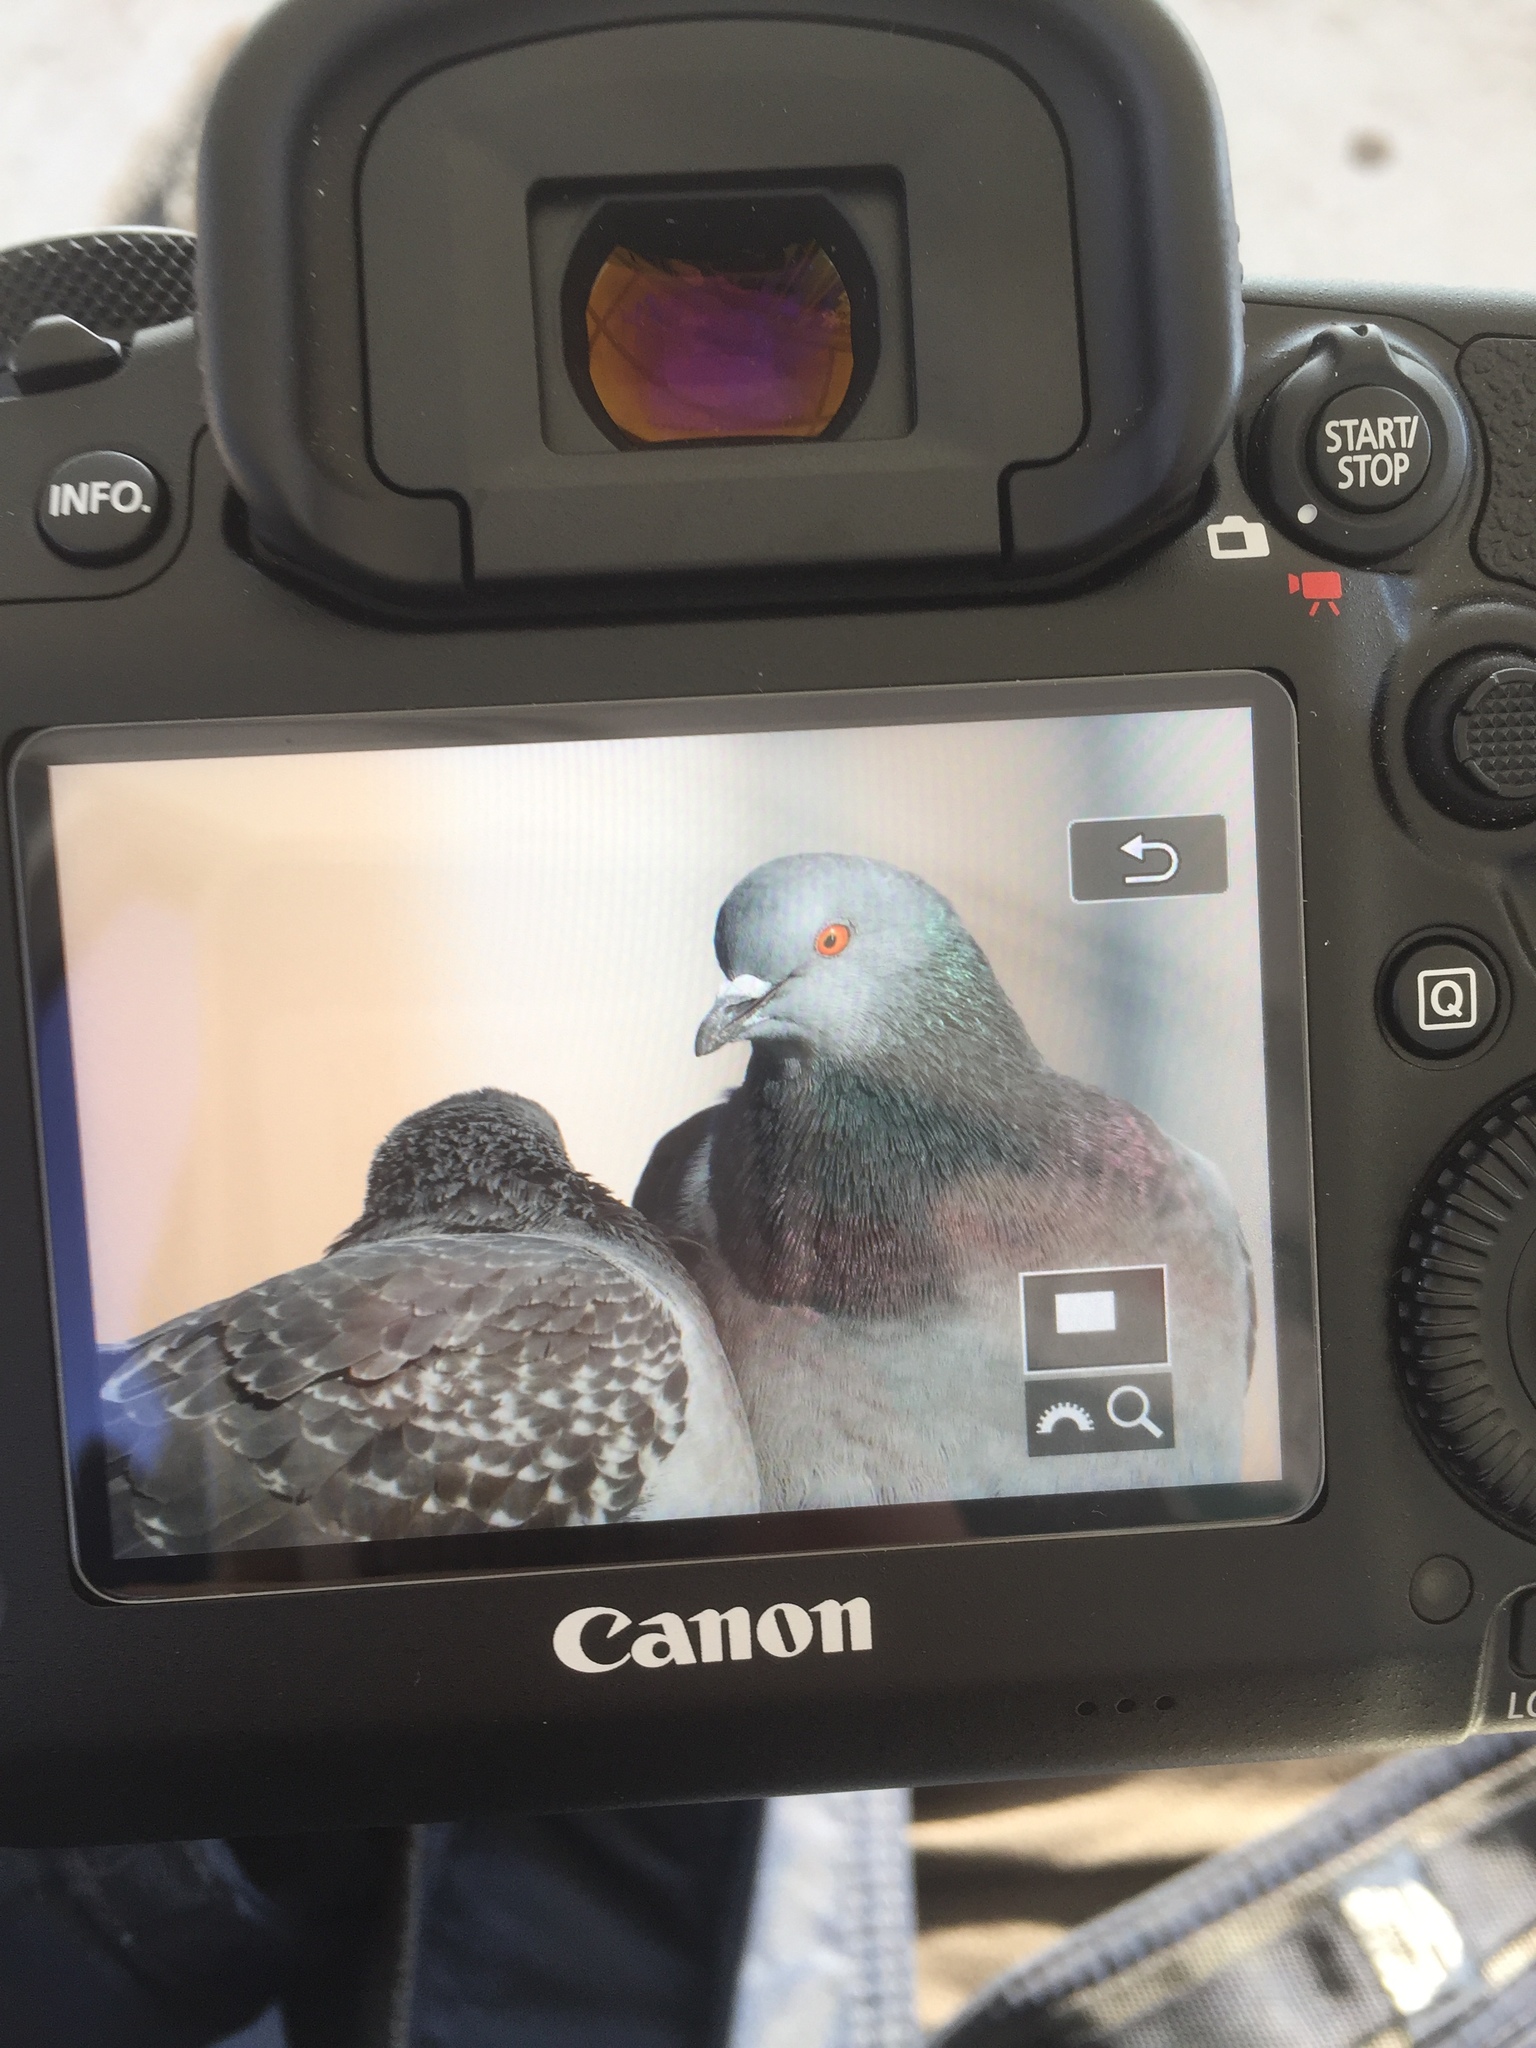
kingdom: Animalia
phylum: Chordata
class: Aves
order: Columbiformes
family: Columbidae
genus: Columba
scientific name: Columba livia
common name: Rock pigeon
